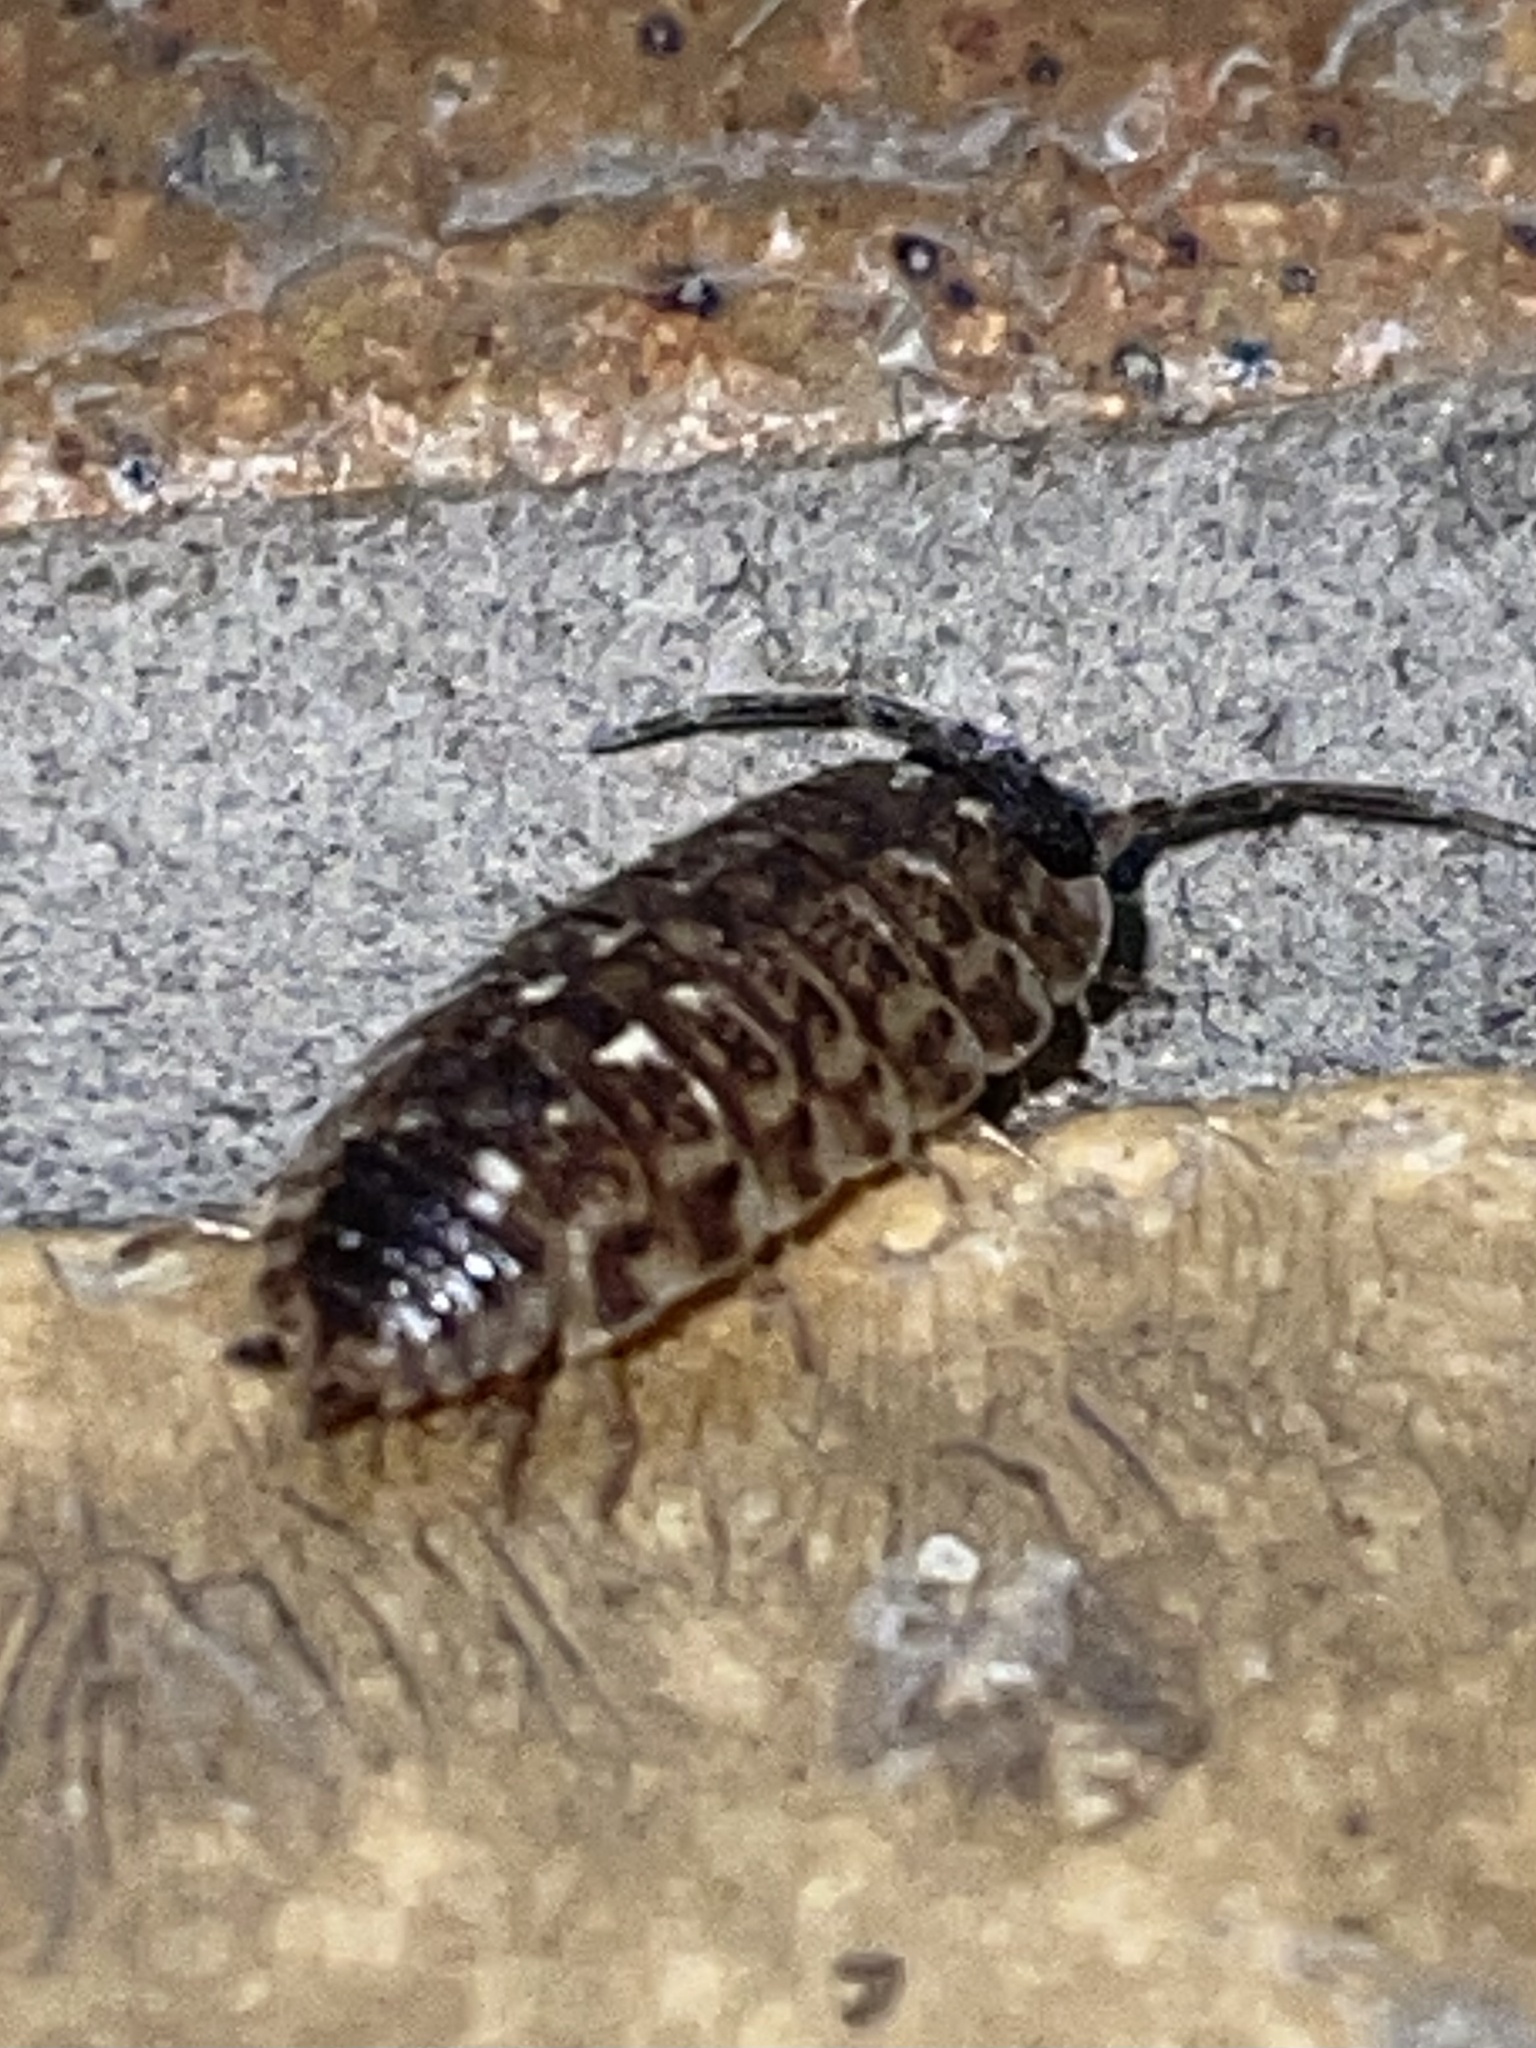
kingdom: Animalia
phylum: Arthropoda
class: Malacostraca
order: Isopoda
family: Porcellionidae
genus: Porcellio
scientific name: Porcellio spinicornis
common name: Painted woodlouse
